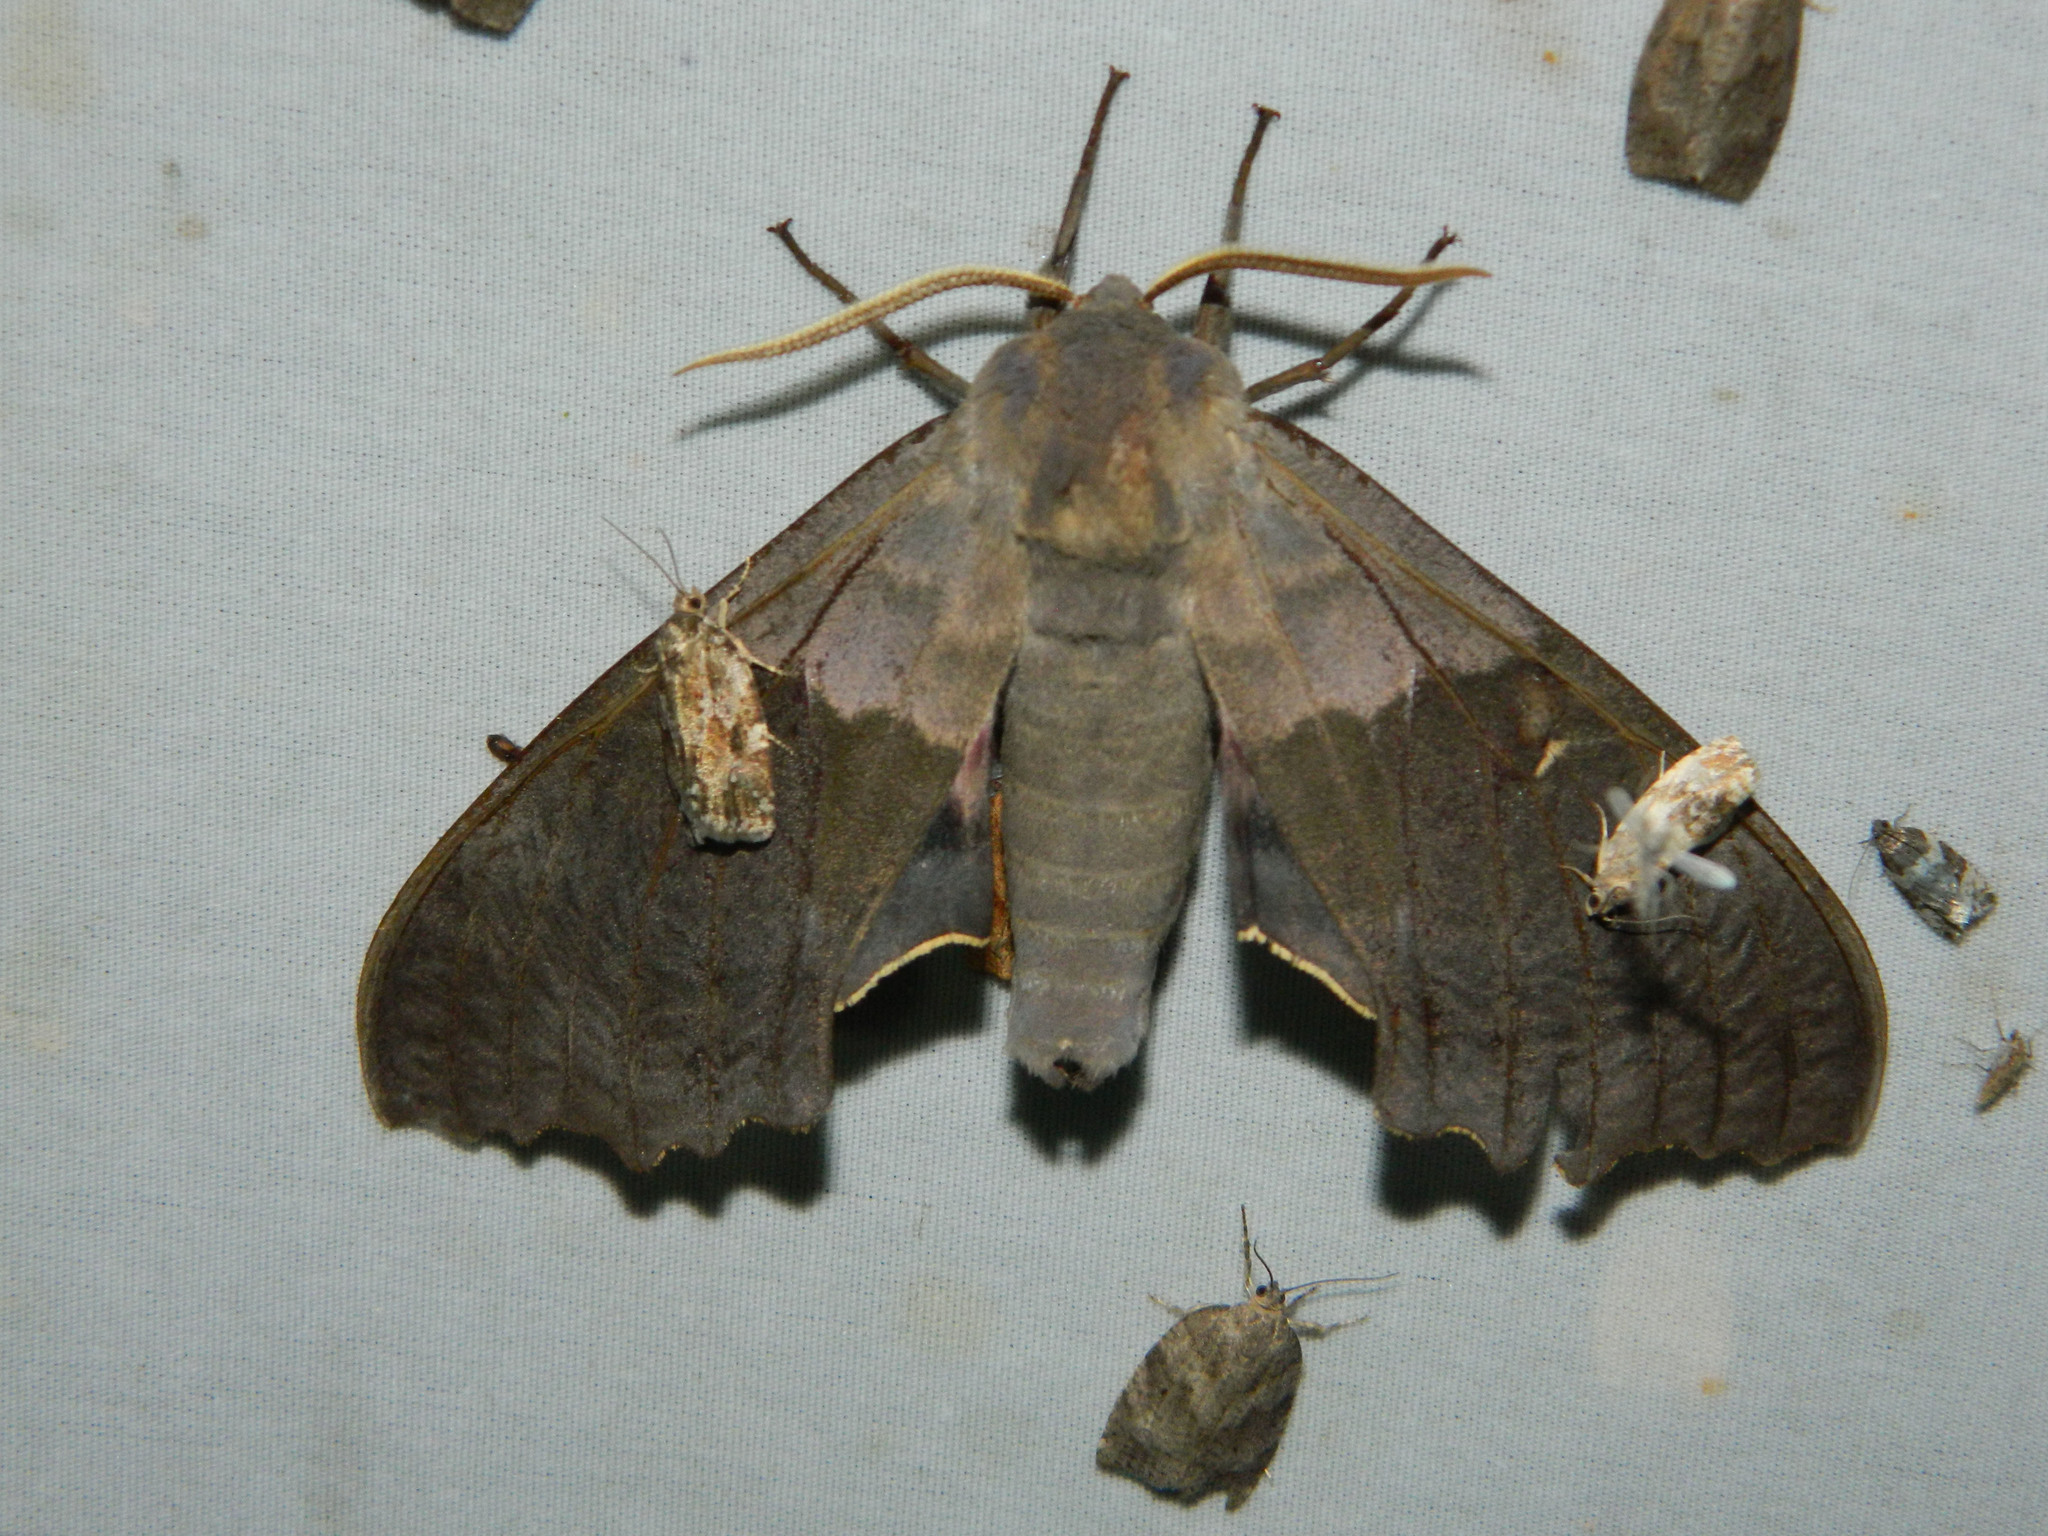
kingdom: Animalia
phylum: Arthropoda
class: Insecta
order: Lepidoptera
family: Sphingidae
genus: Pachysphinx
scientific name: Pachysphinx modesta
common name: Big poplar sphinx
